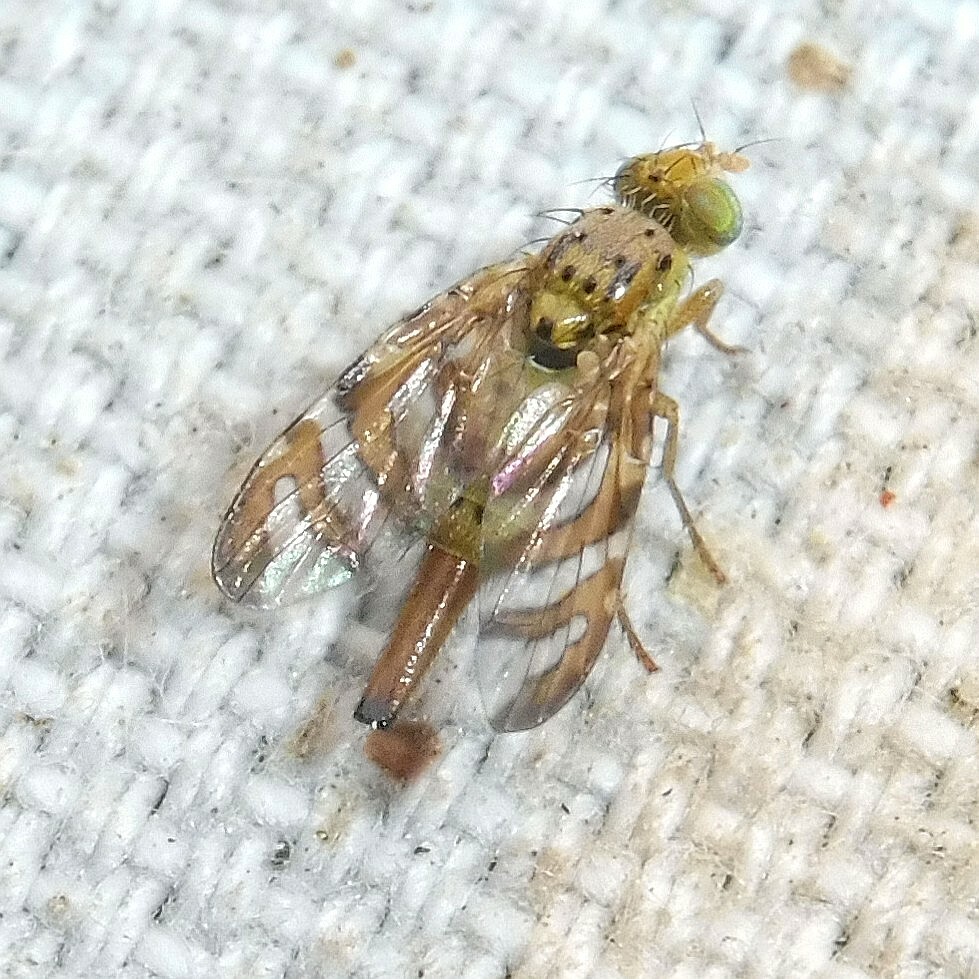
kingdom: Animalia
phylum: Arthropoda
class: Insecta
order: Diptera
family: Tephritidae
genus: Chaetorellia
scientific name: Chaetorellia jaceae
